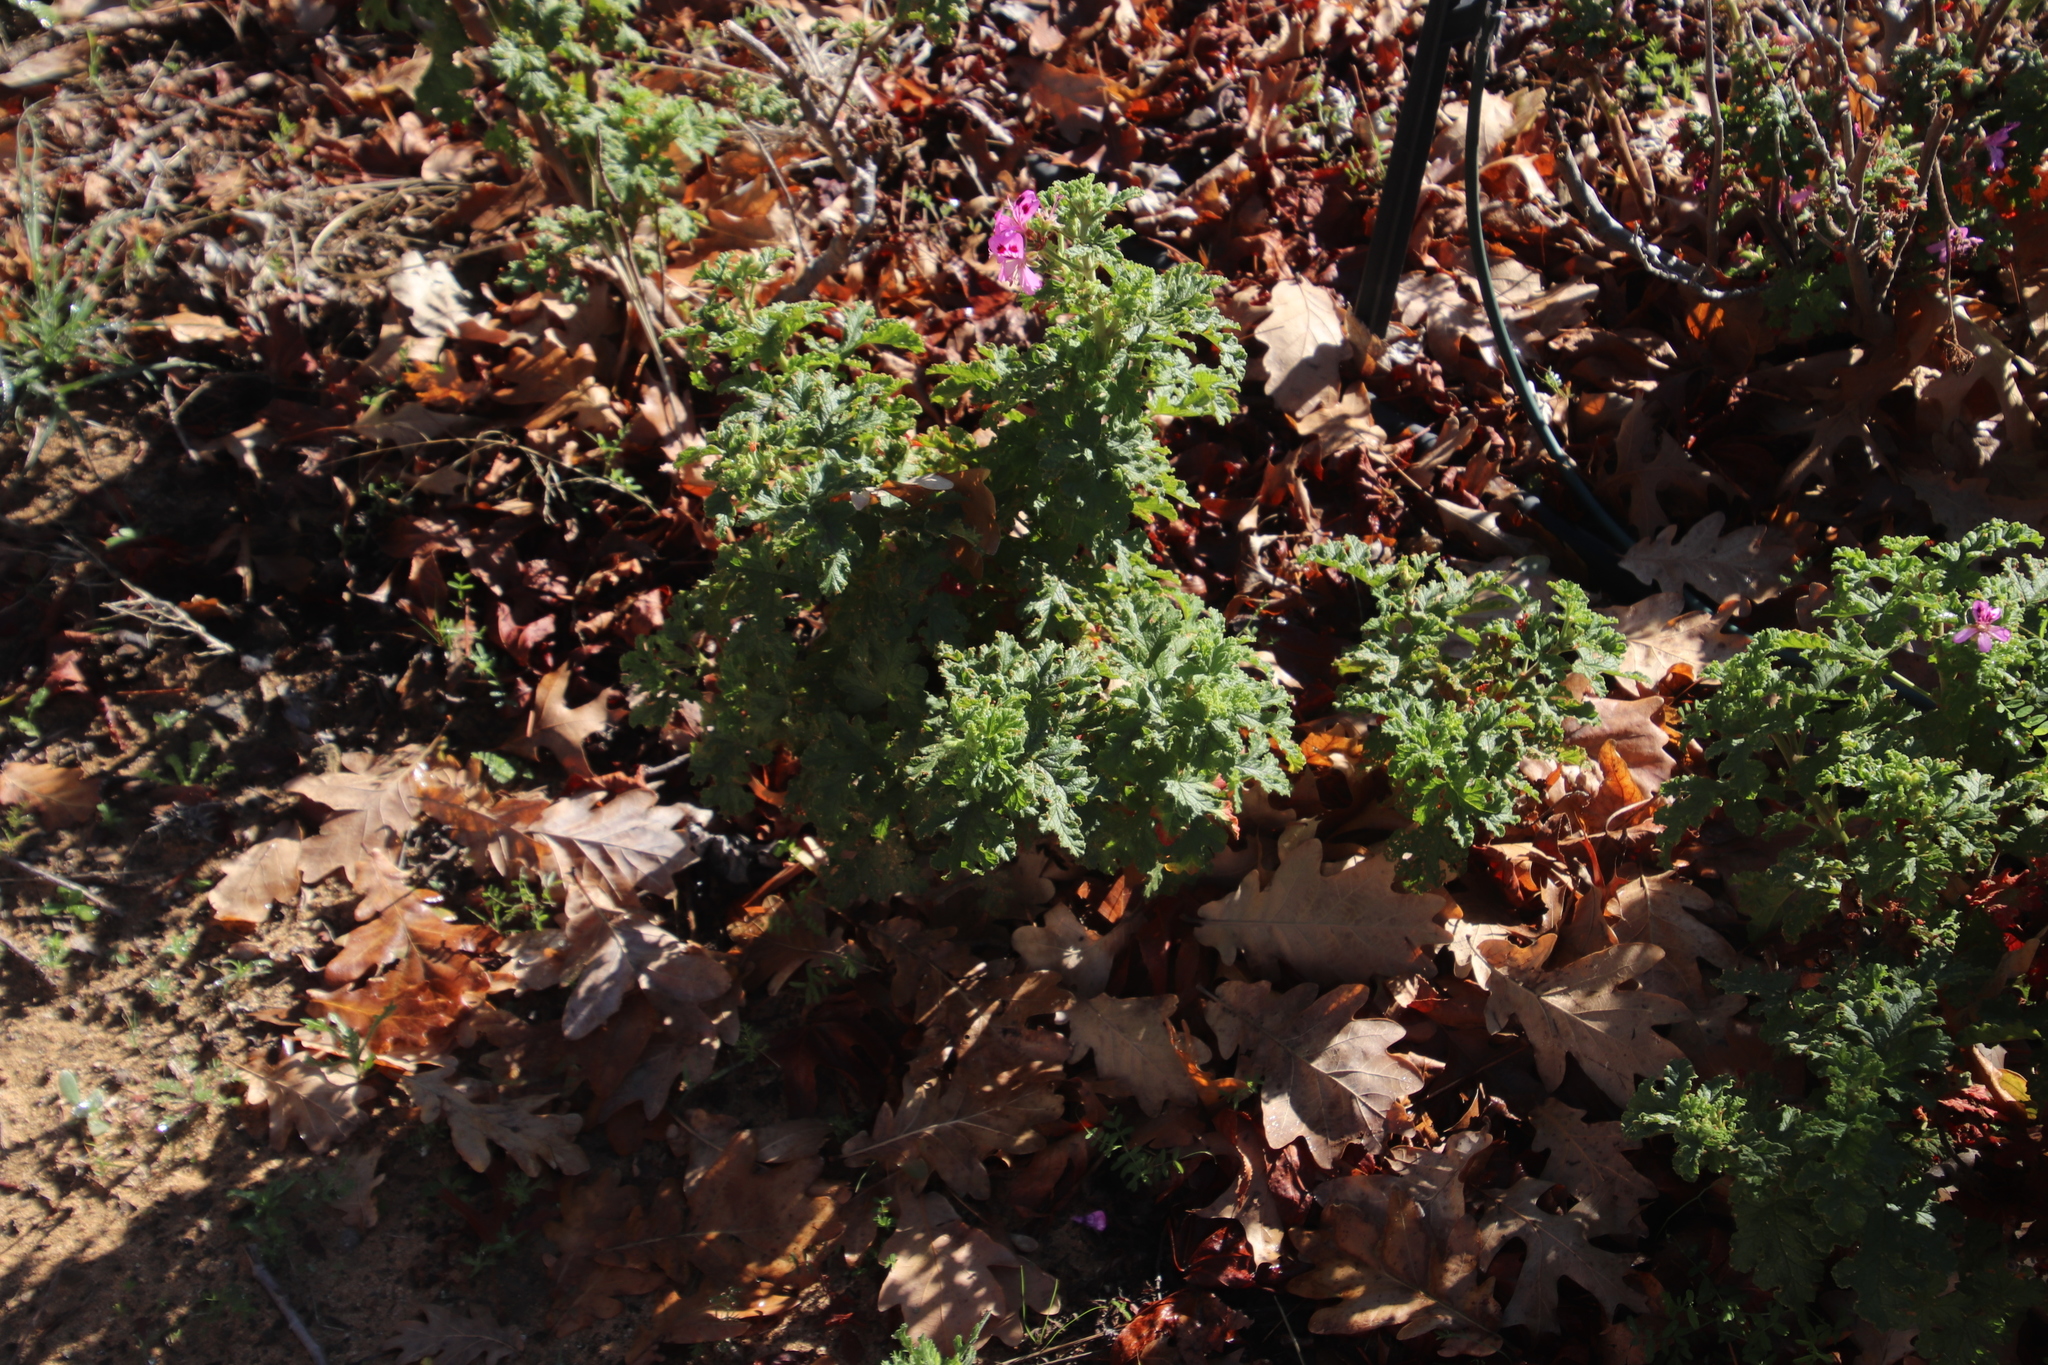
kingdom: Plantae
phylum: Tracheophyta
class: Magnoliopsida
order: Geraniales
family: Geraniaceae
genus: Pelargonium
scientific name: Pelargonium sublignosum
